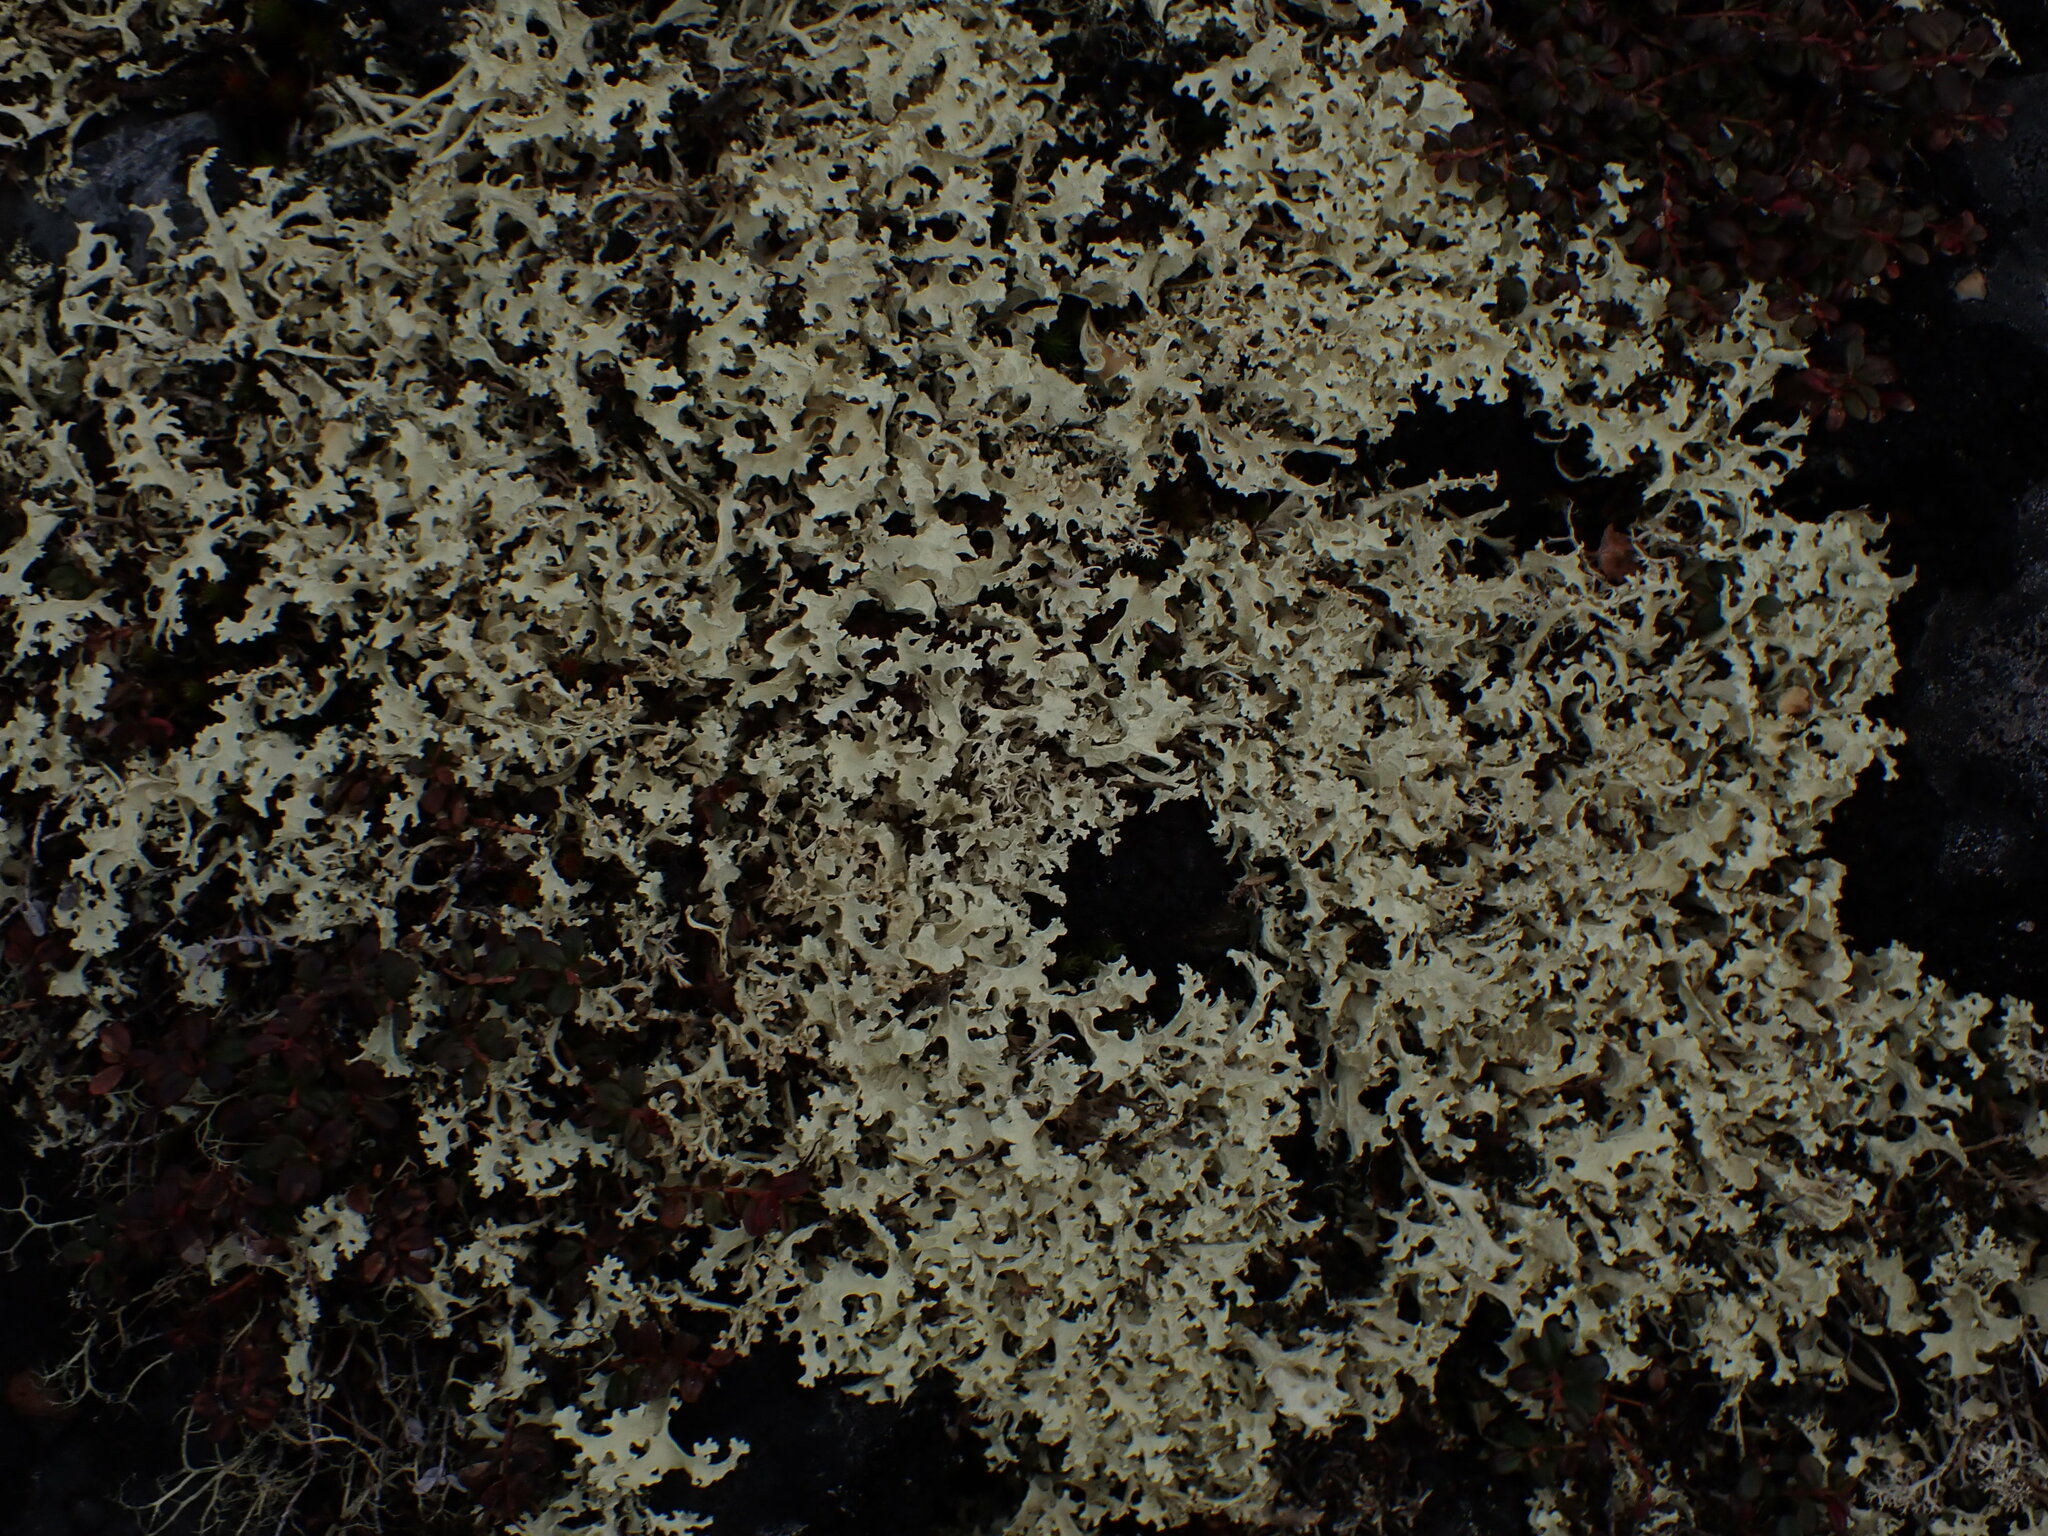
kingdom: Fungi
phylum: Ascomycota
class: Lecanoromycetes
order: Lecanorales
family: Parmeliaceae
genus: Nephromopsis
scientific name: Nephromopsis nivalis
